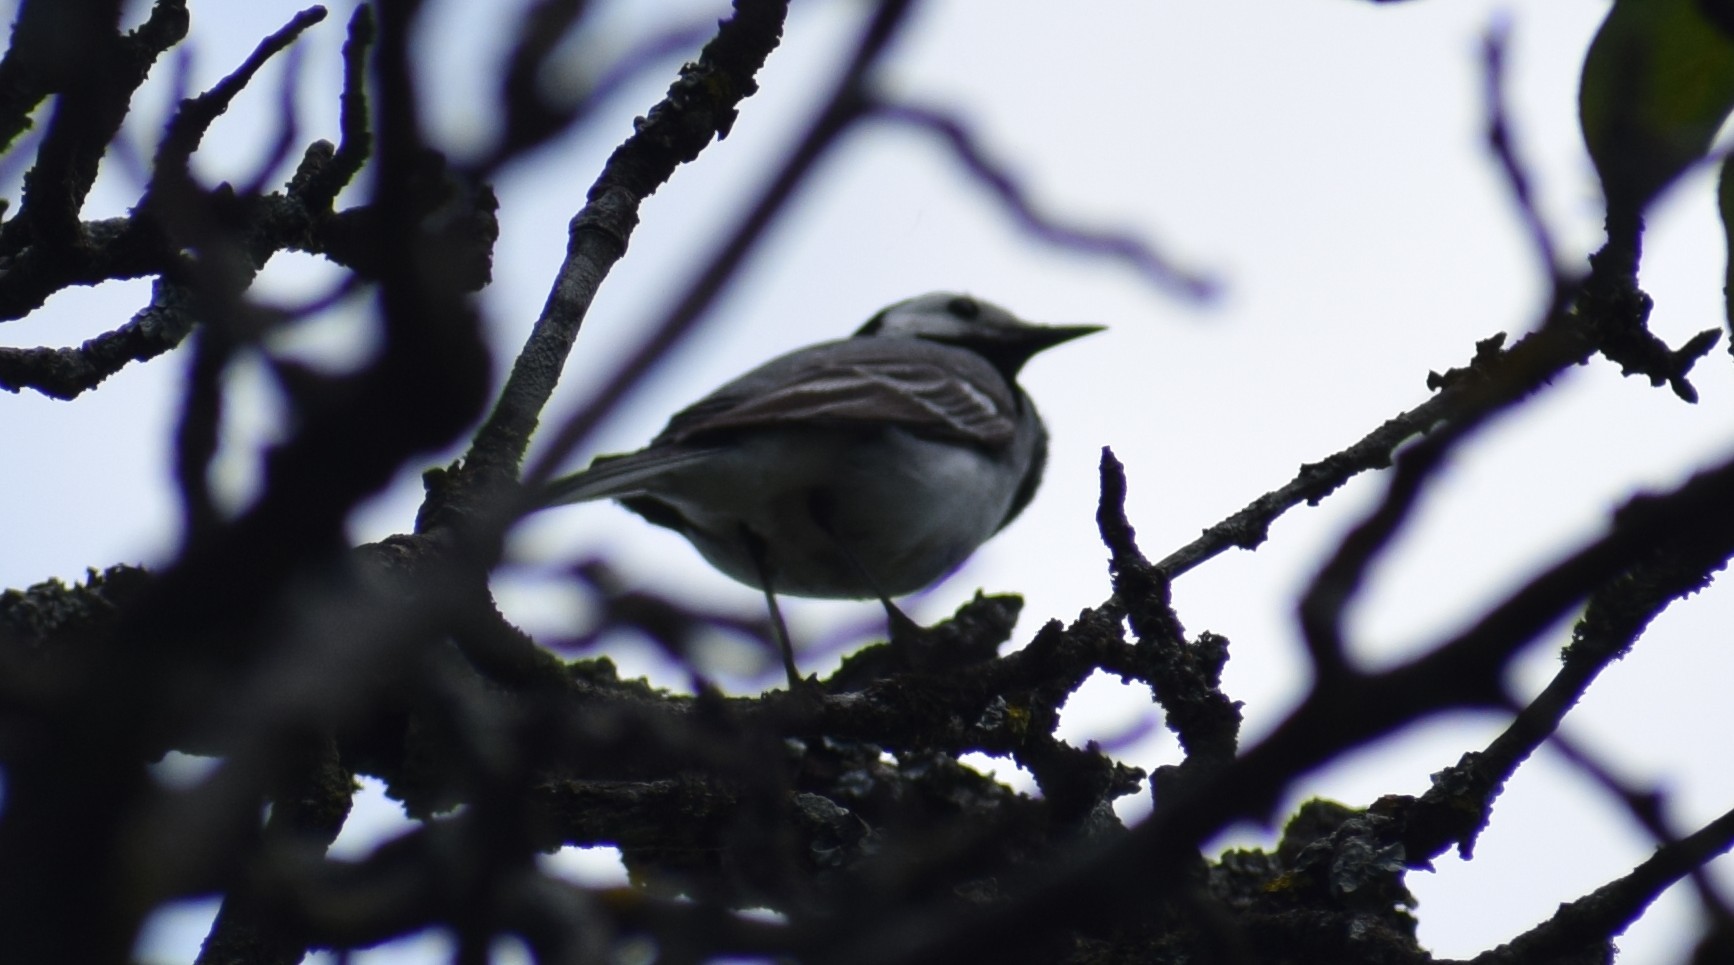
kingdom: Animalia
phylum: Chordata
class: Aves
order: Passeriformes
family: Motacillidae
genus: Motacilla
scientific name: Motacilla alba
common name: White wagtail
